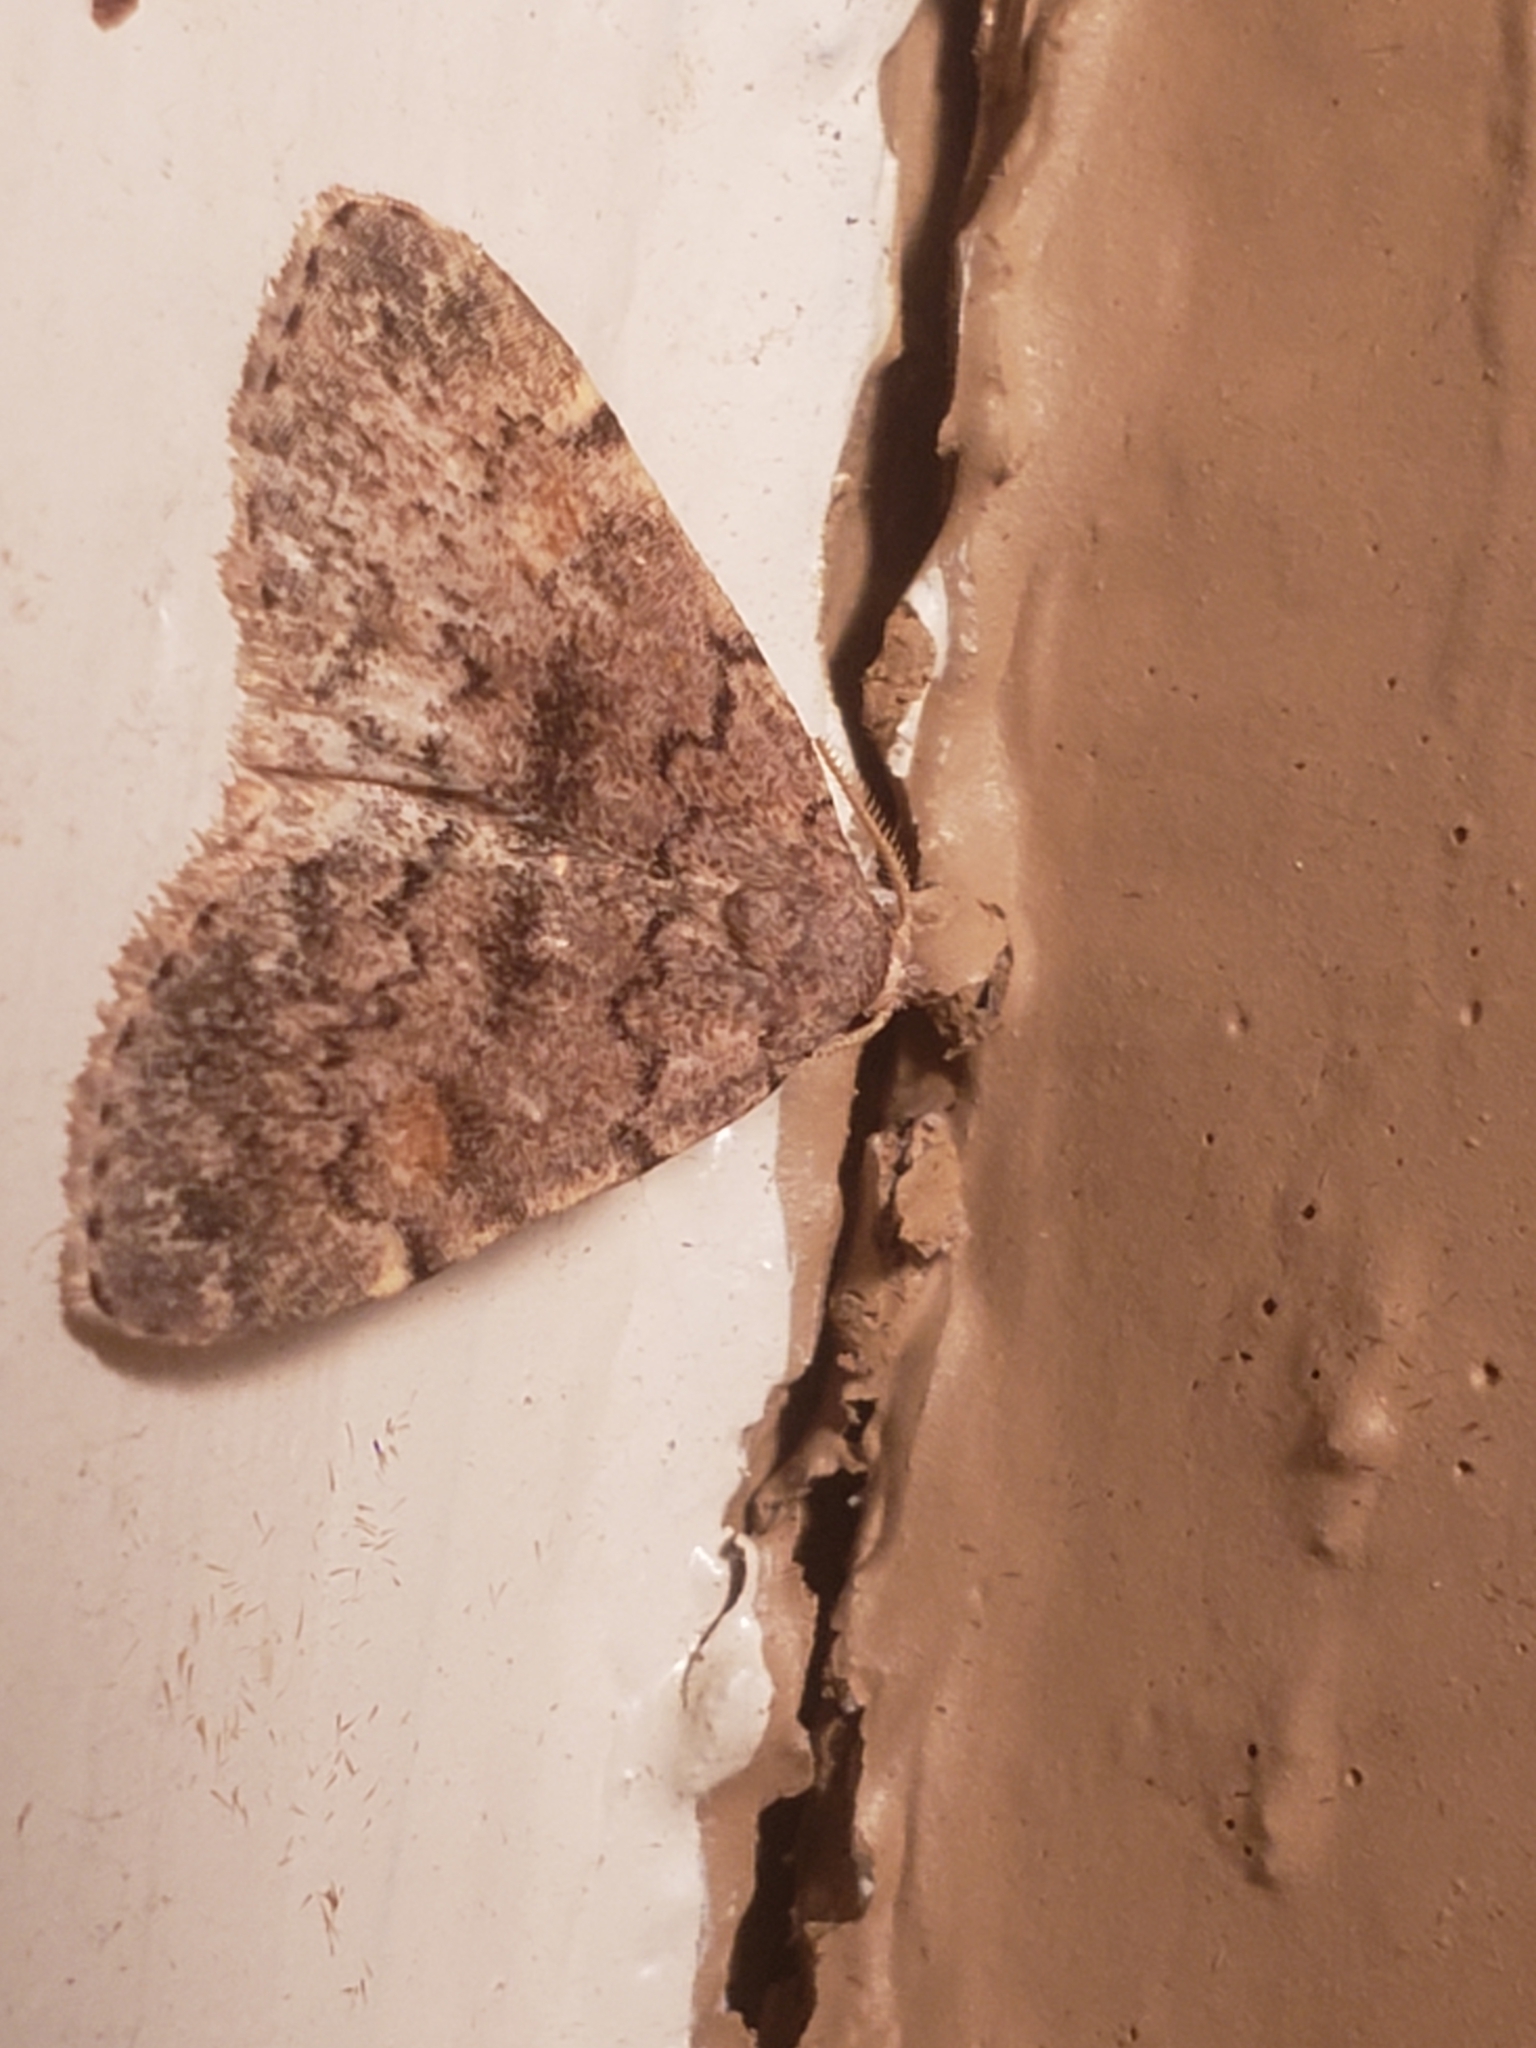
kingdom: Animalia
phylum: Arthropoda
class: Insecta
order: Lepidoptera
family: Erebidae
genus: Idia
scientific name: Idia aemula
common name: Common idia moth
